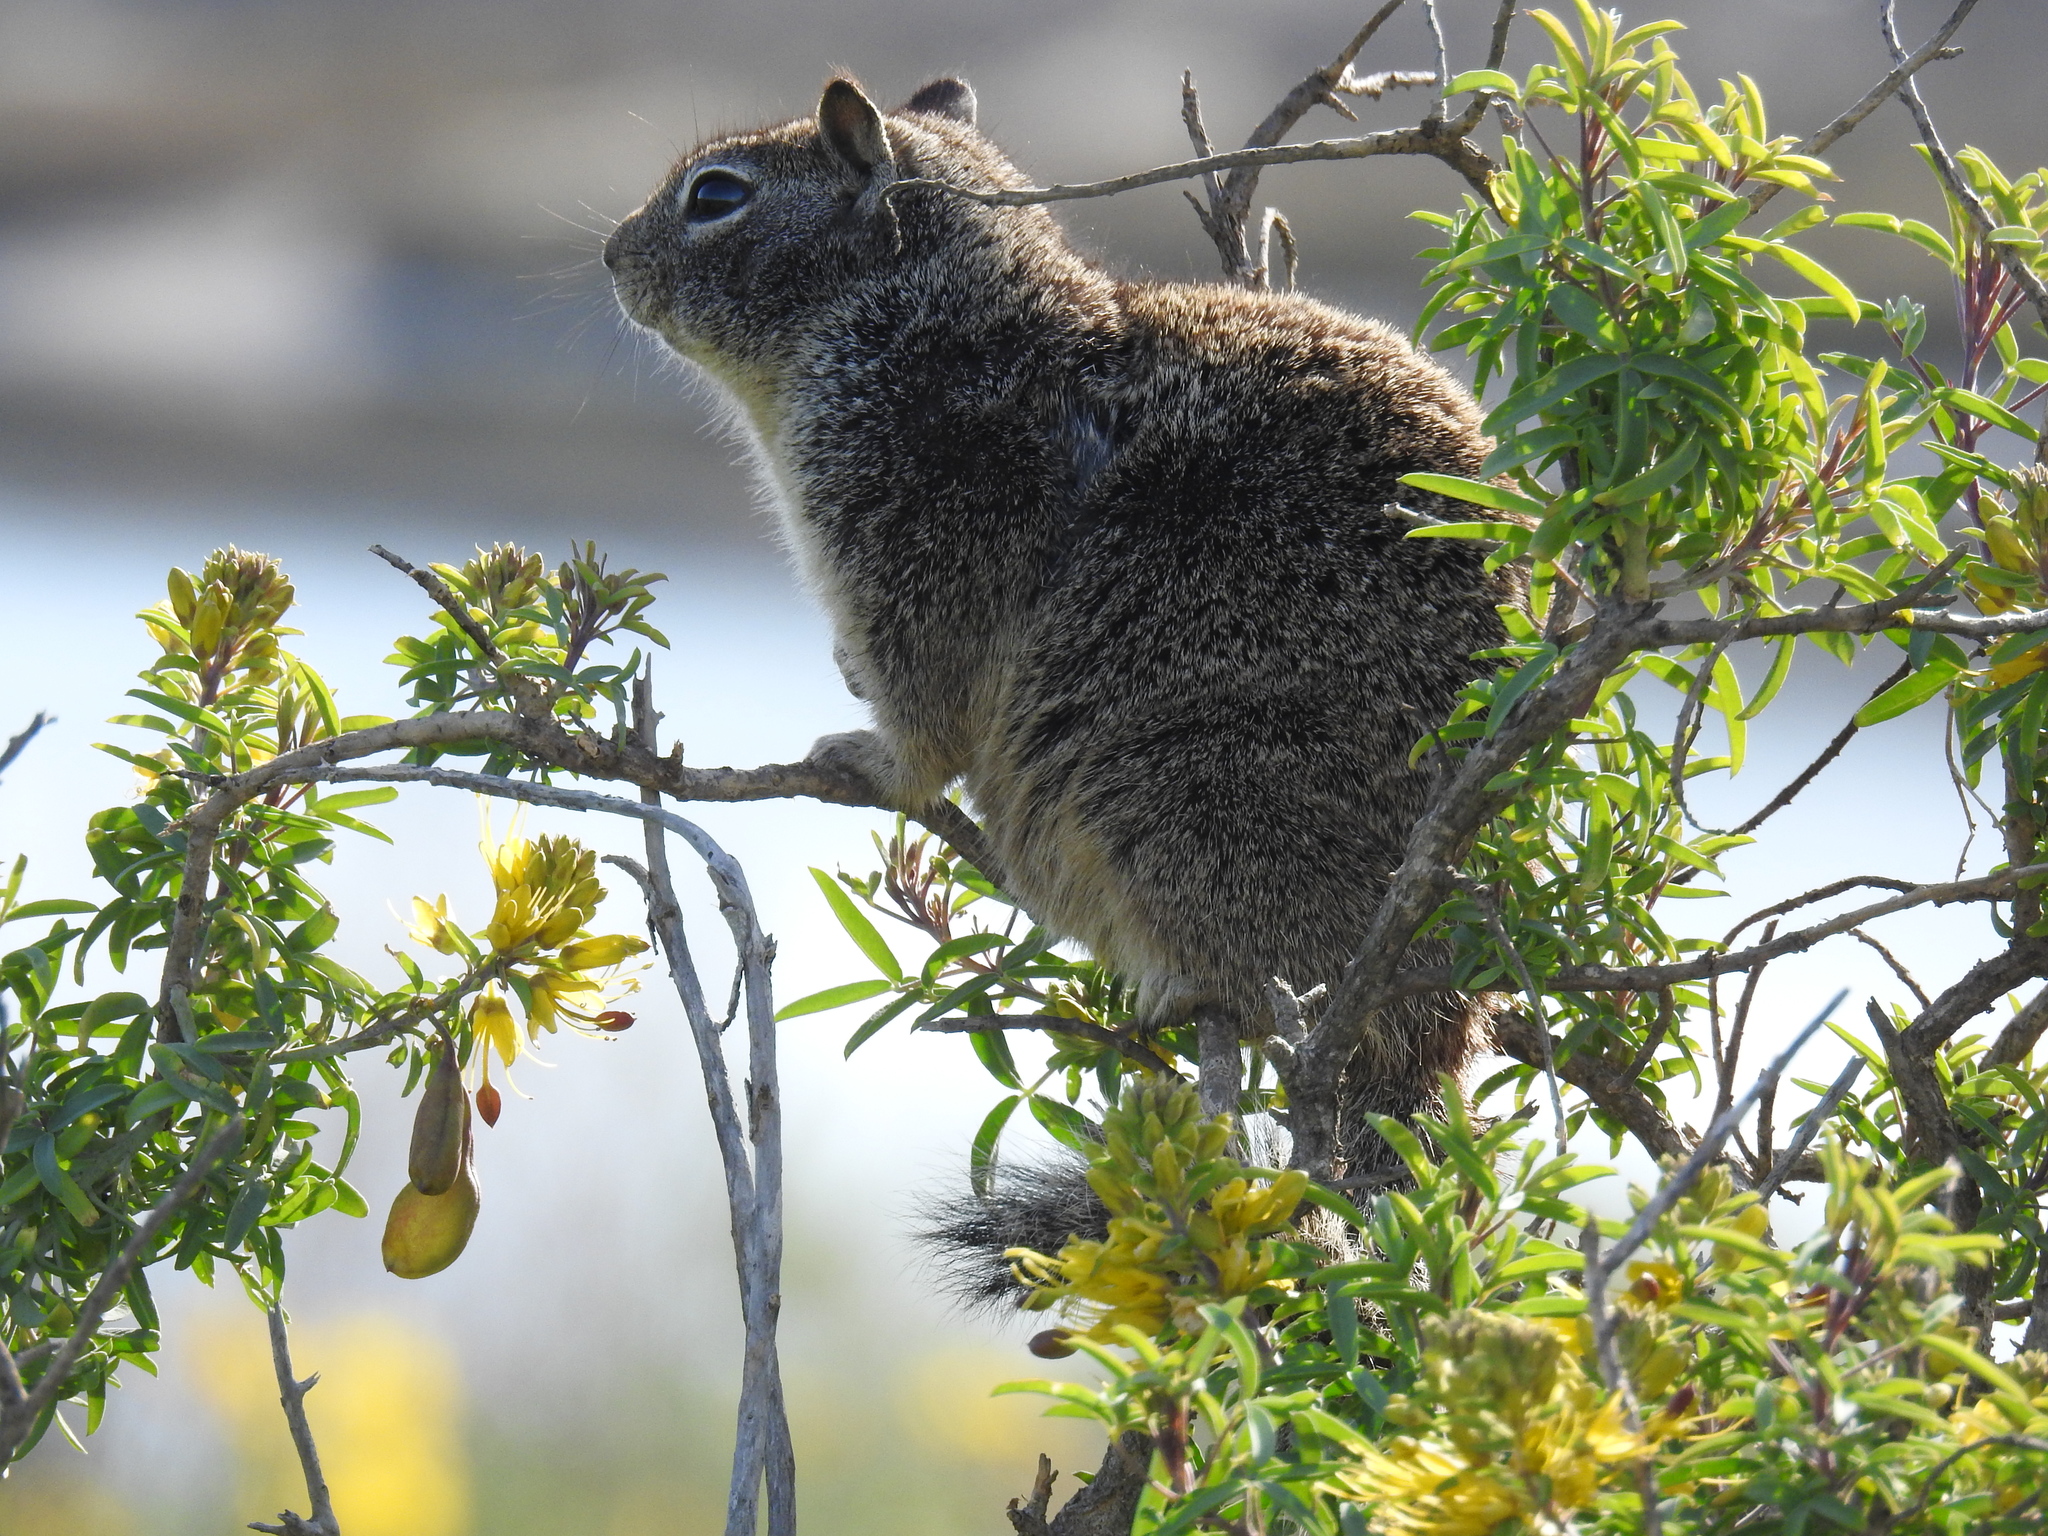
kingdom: Animalia
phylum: Chordata
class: Mammalia
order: Rodentia
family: Sciuridae
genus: Otospermophilus
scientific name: Otospermophilus beecheyi
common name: California ground squirrel
